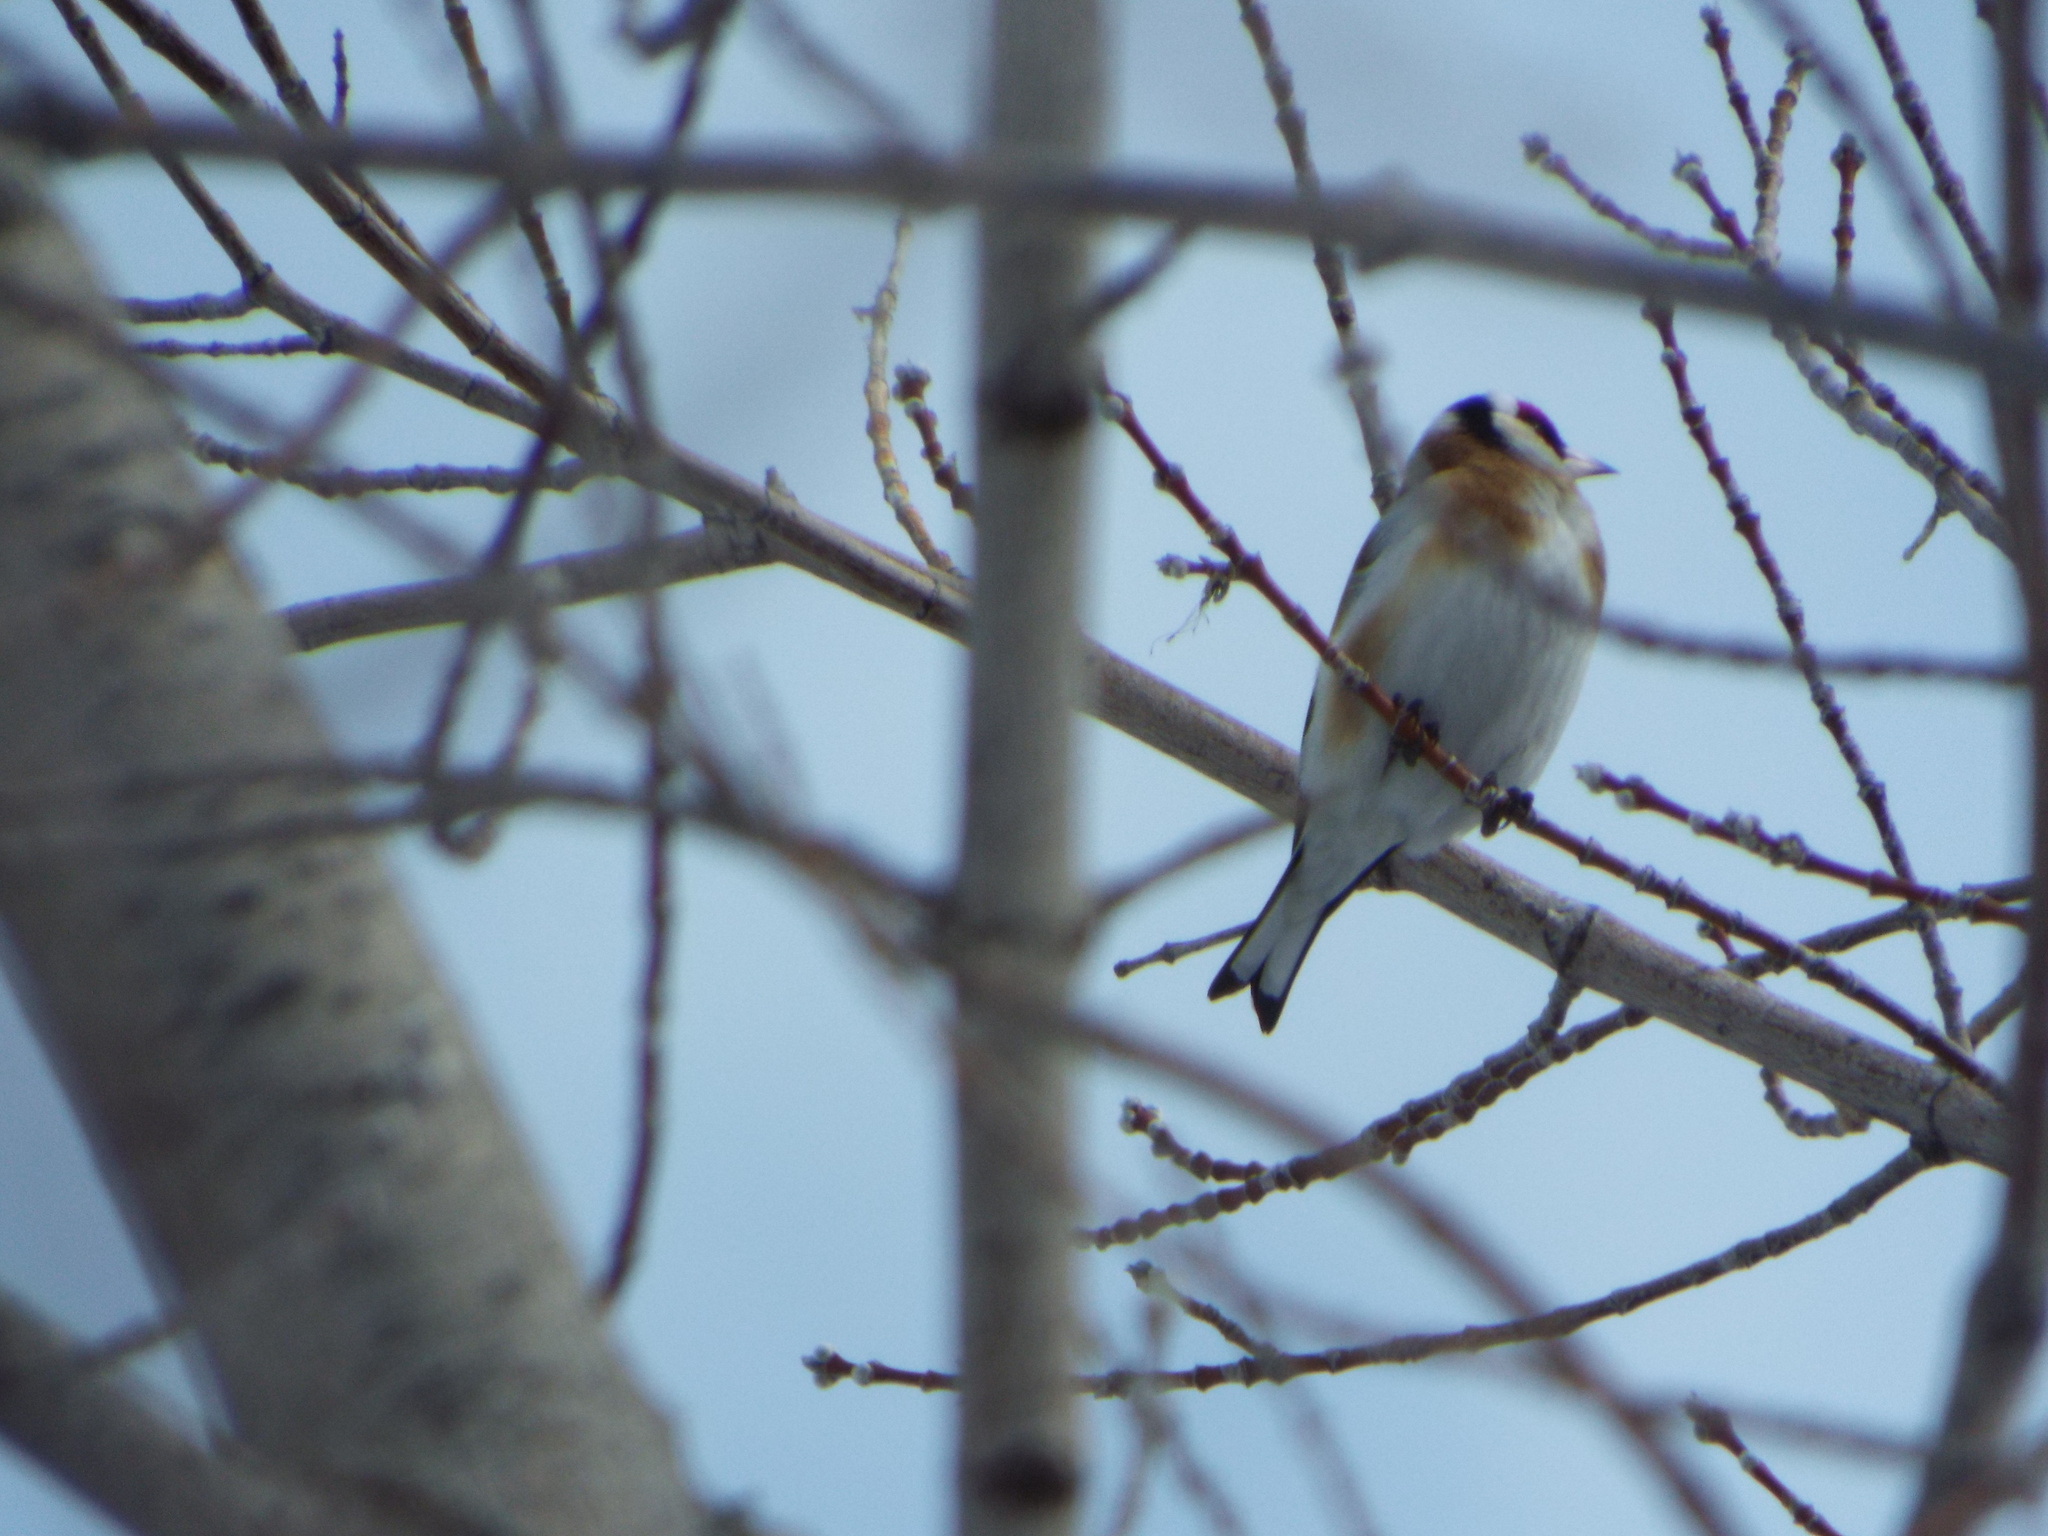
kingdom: Animalia
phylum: Chordata
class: Aves
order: Passeriformes
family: Fringillidae
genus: Carduelis
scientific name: Carduelis carduelis
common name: European goldfinch
